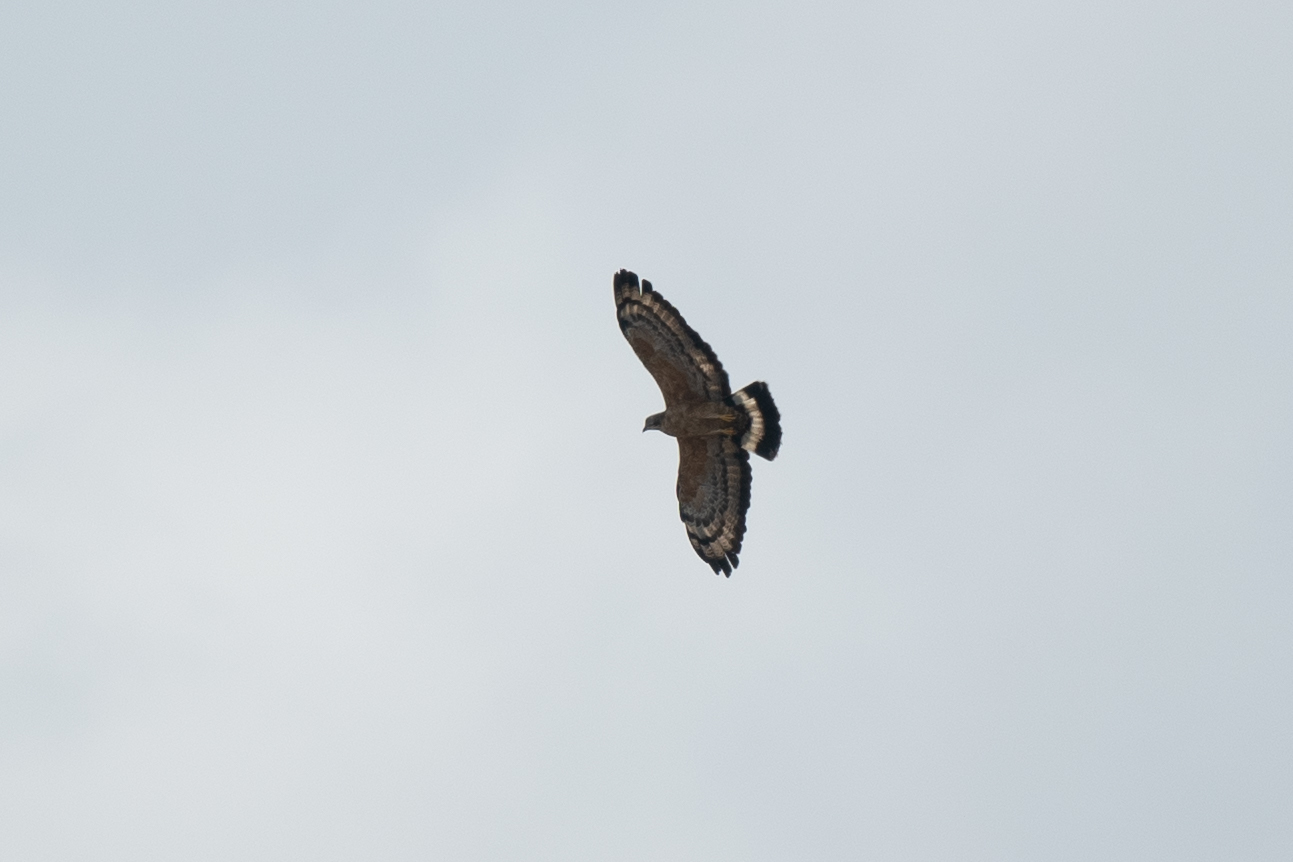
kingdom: Animalia
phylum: Chordata
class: Aves
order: Accipitriformes
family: Accipitridae
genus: Pernis
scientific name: Pernis ptilorhynchus
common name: Crested honey buzzard
